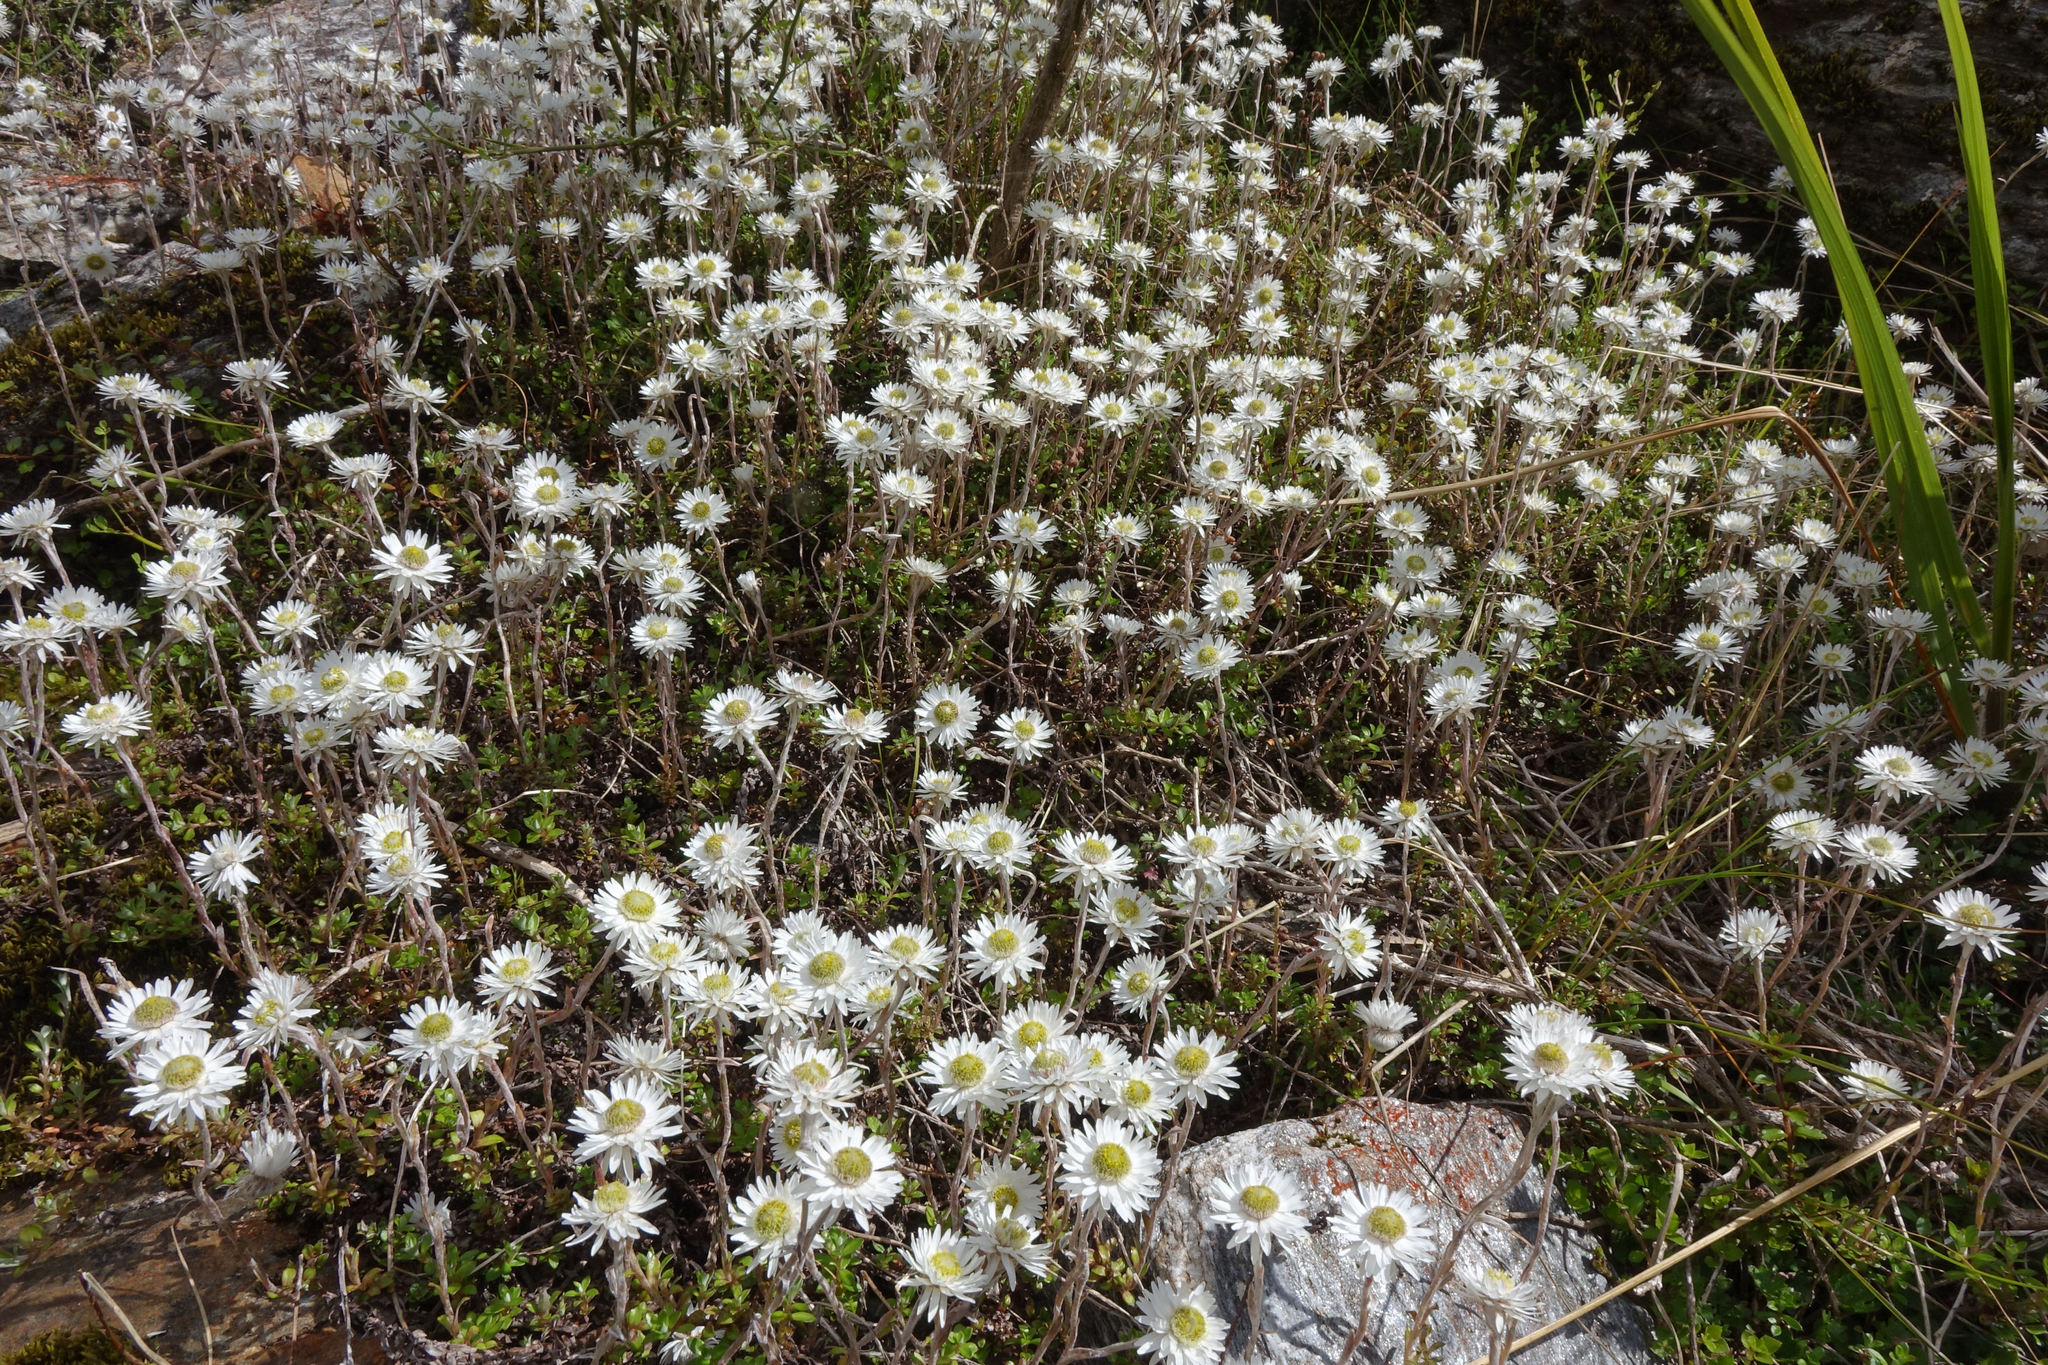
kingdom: Plantae
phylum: Tracheophyta
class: Magnoliopsida
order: Asterales
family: Asteraceae
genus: Anaphalioides
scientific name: Anaphalioides bellidioides
